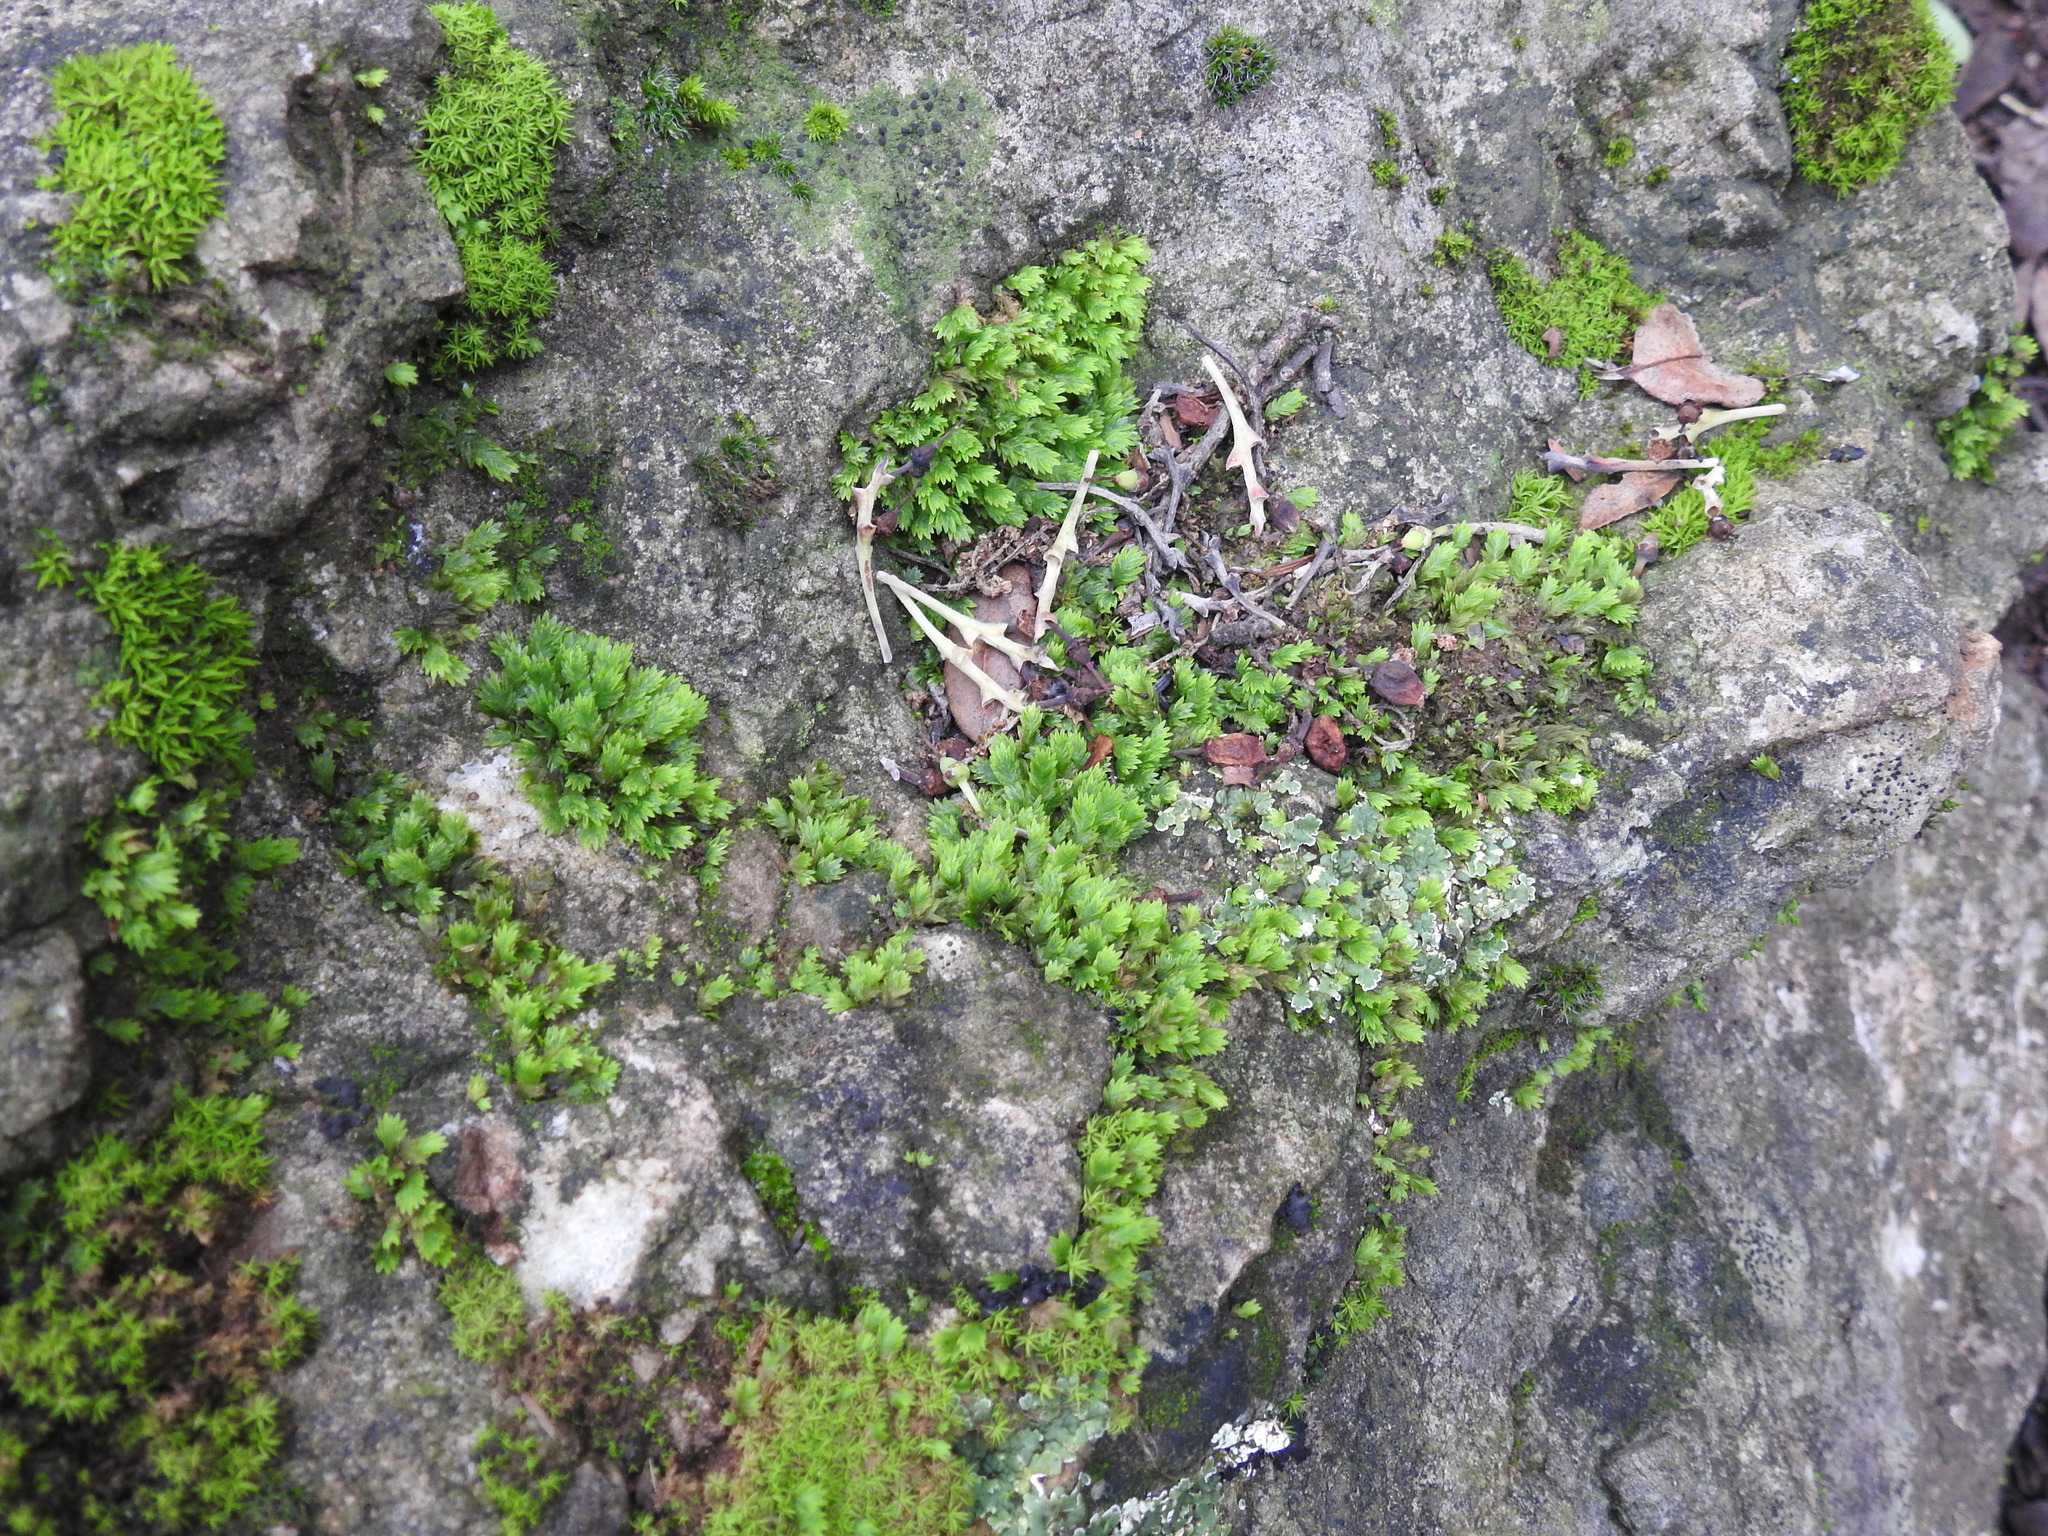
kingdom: Plantae
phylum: Bryophyta
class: Bryopsida
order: Dicranales
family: Fissidentaceae
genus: Fissidens
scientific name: Fissidens taxifolius
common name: Yew-leaved pocket moss
